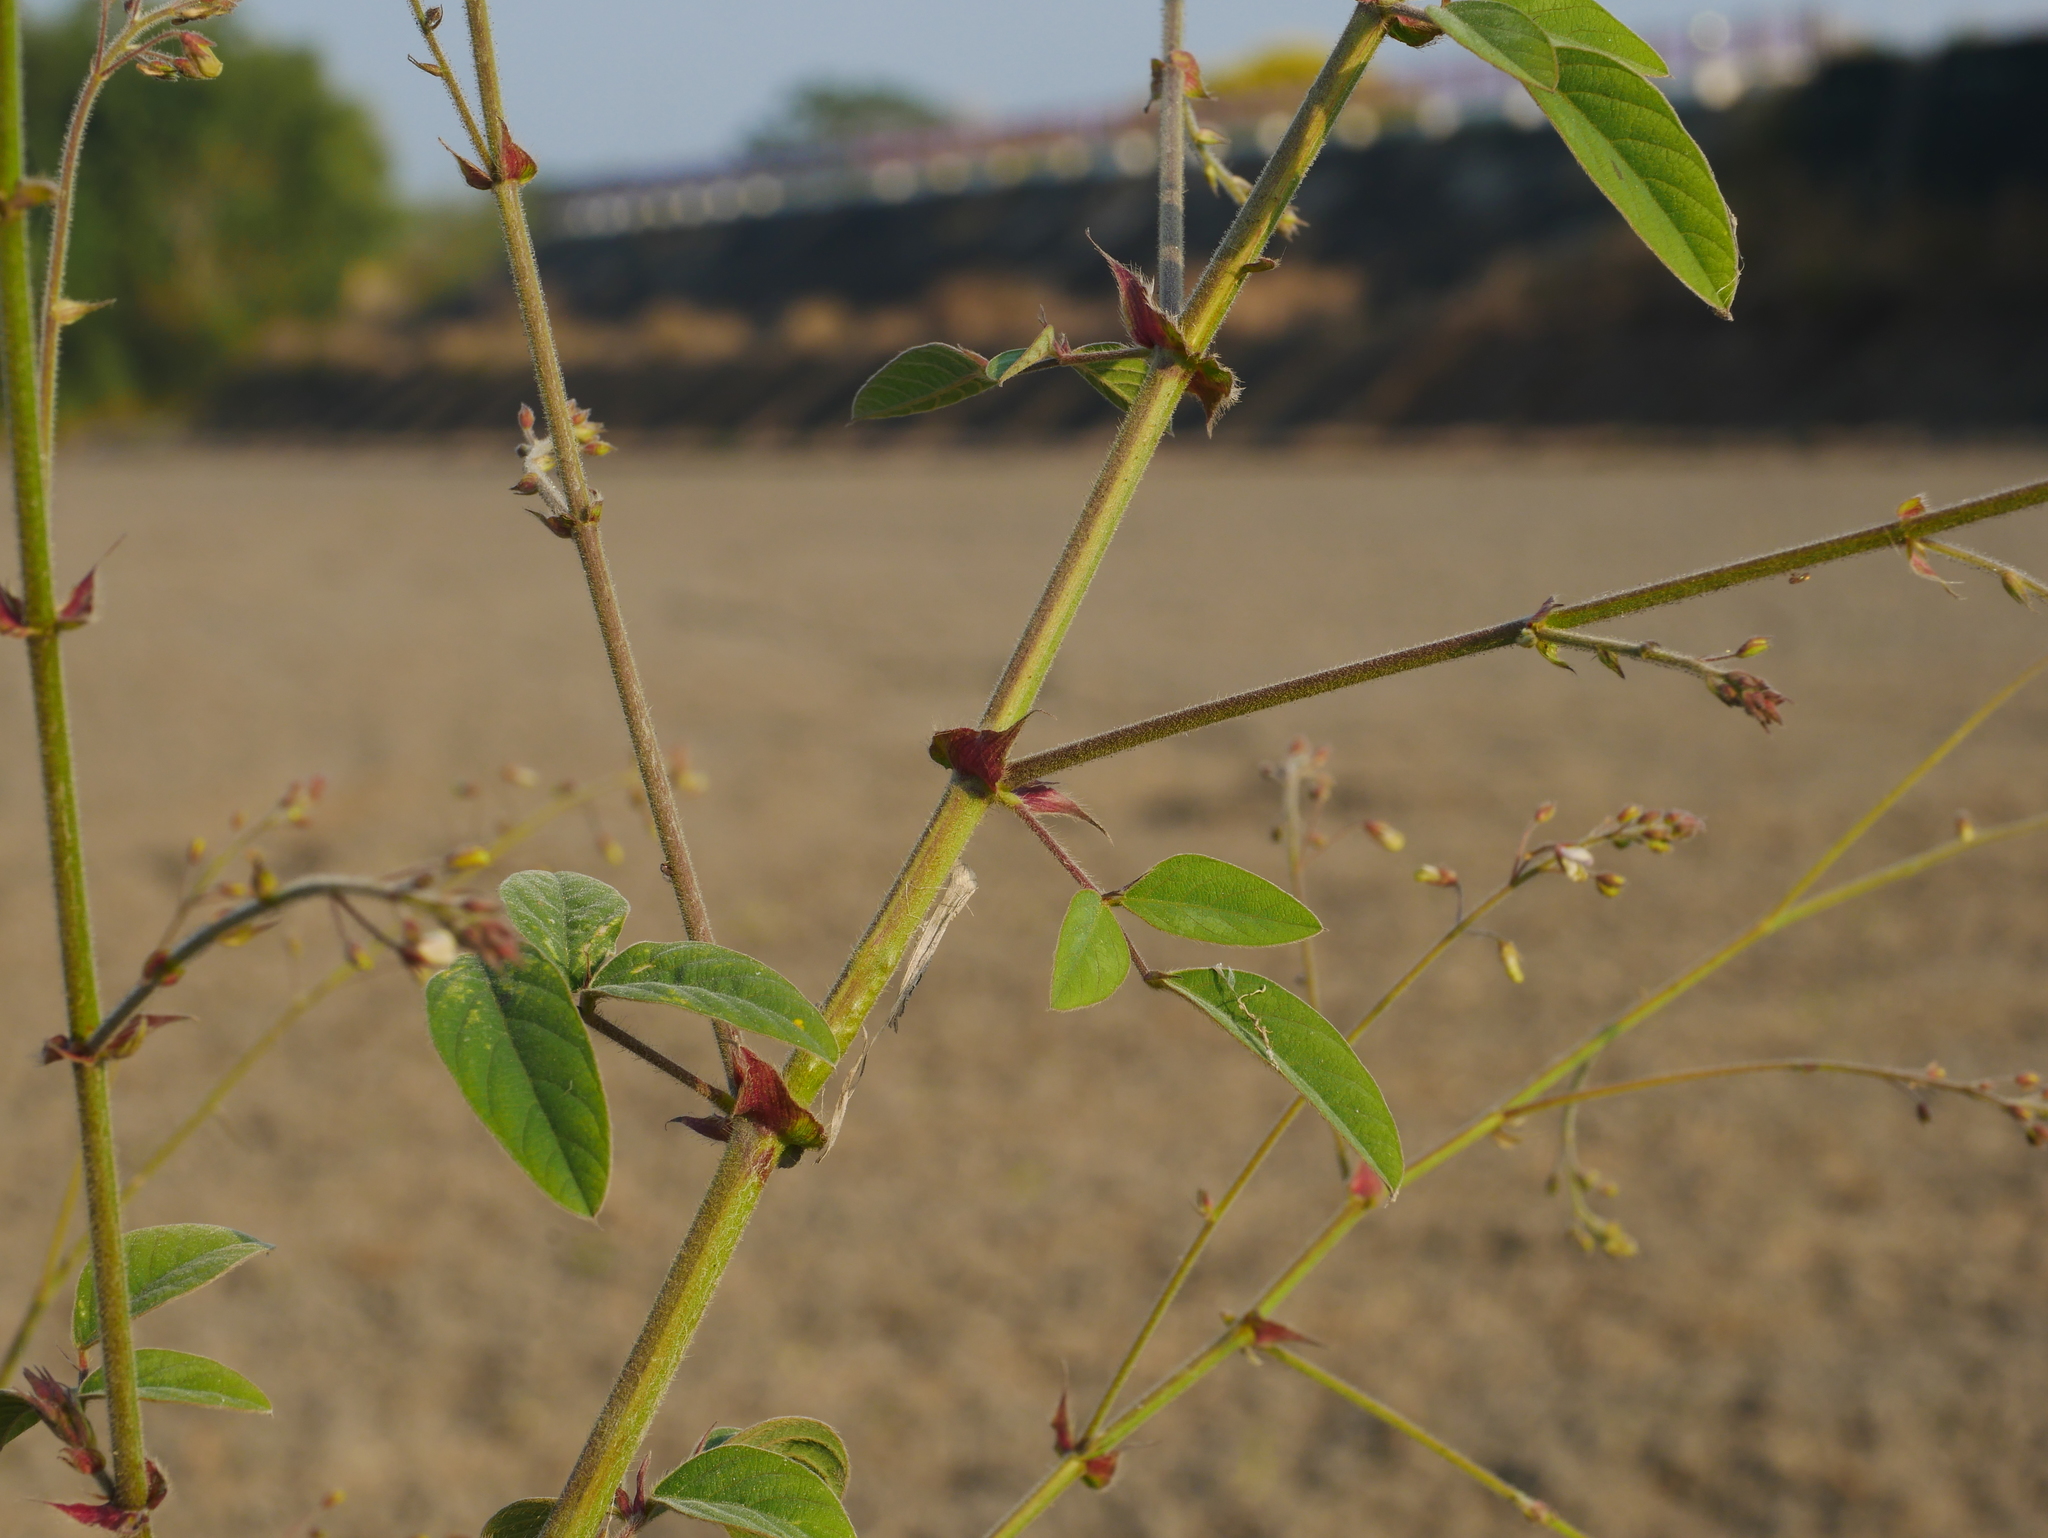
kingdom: Plantae
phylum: Tracheophyta
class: Magnoliopsida
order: Fabales
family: Fabaceae
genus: Desmodium
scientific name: Desmodium tortuosum
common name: Dixie ticktrefoil
